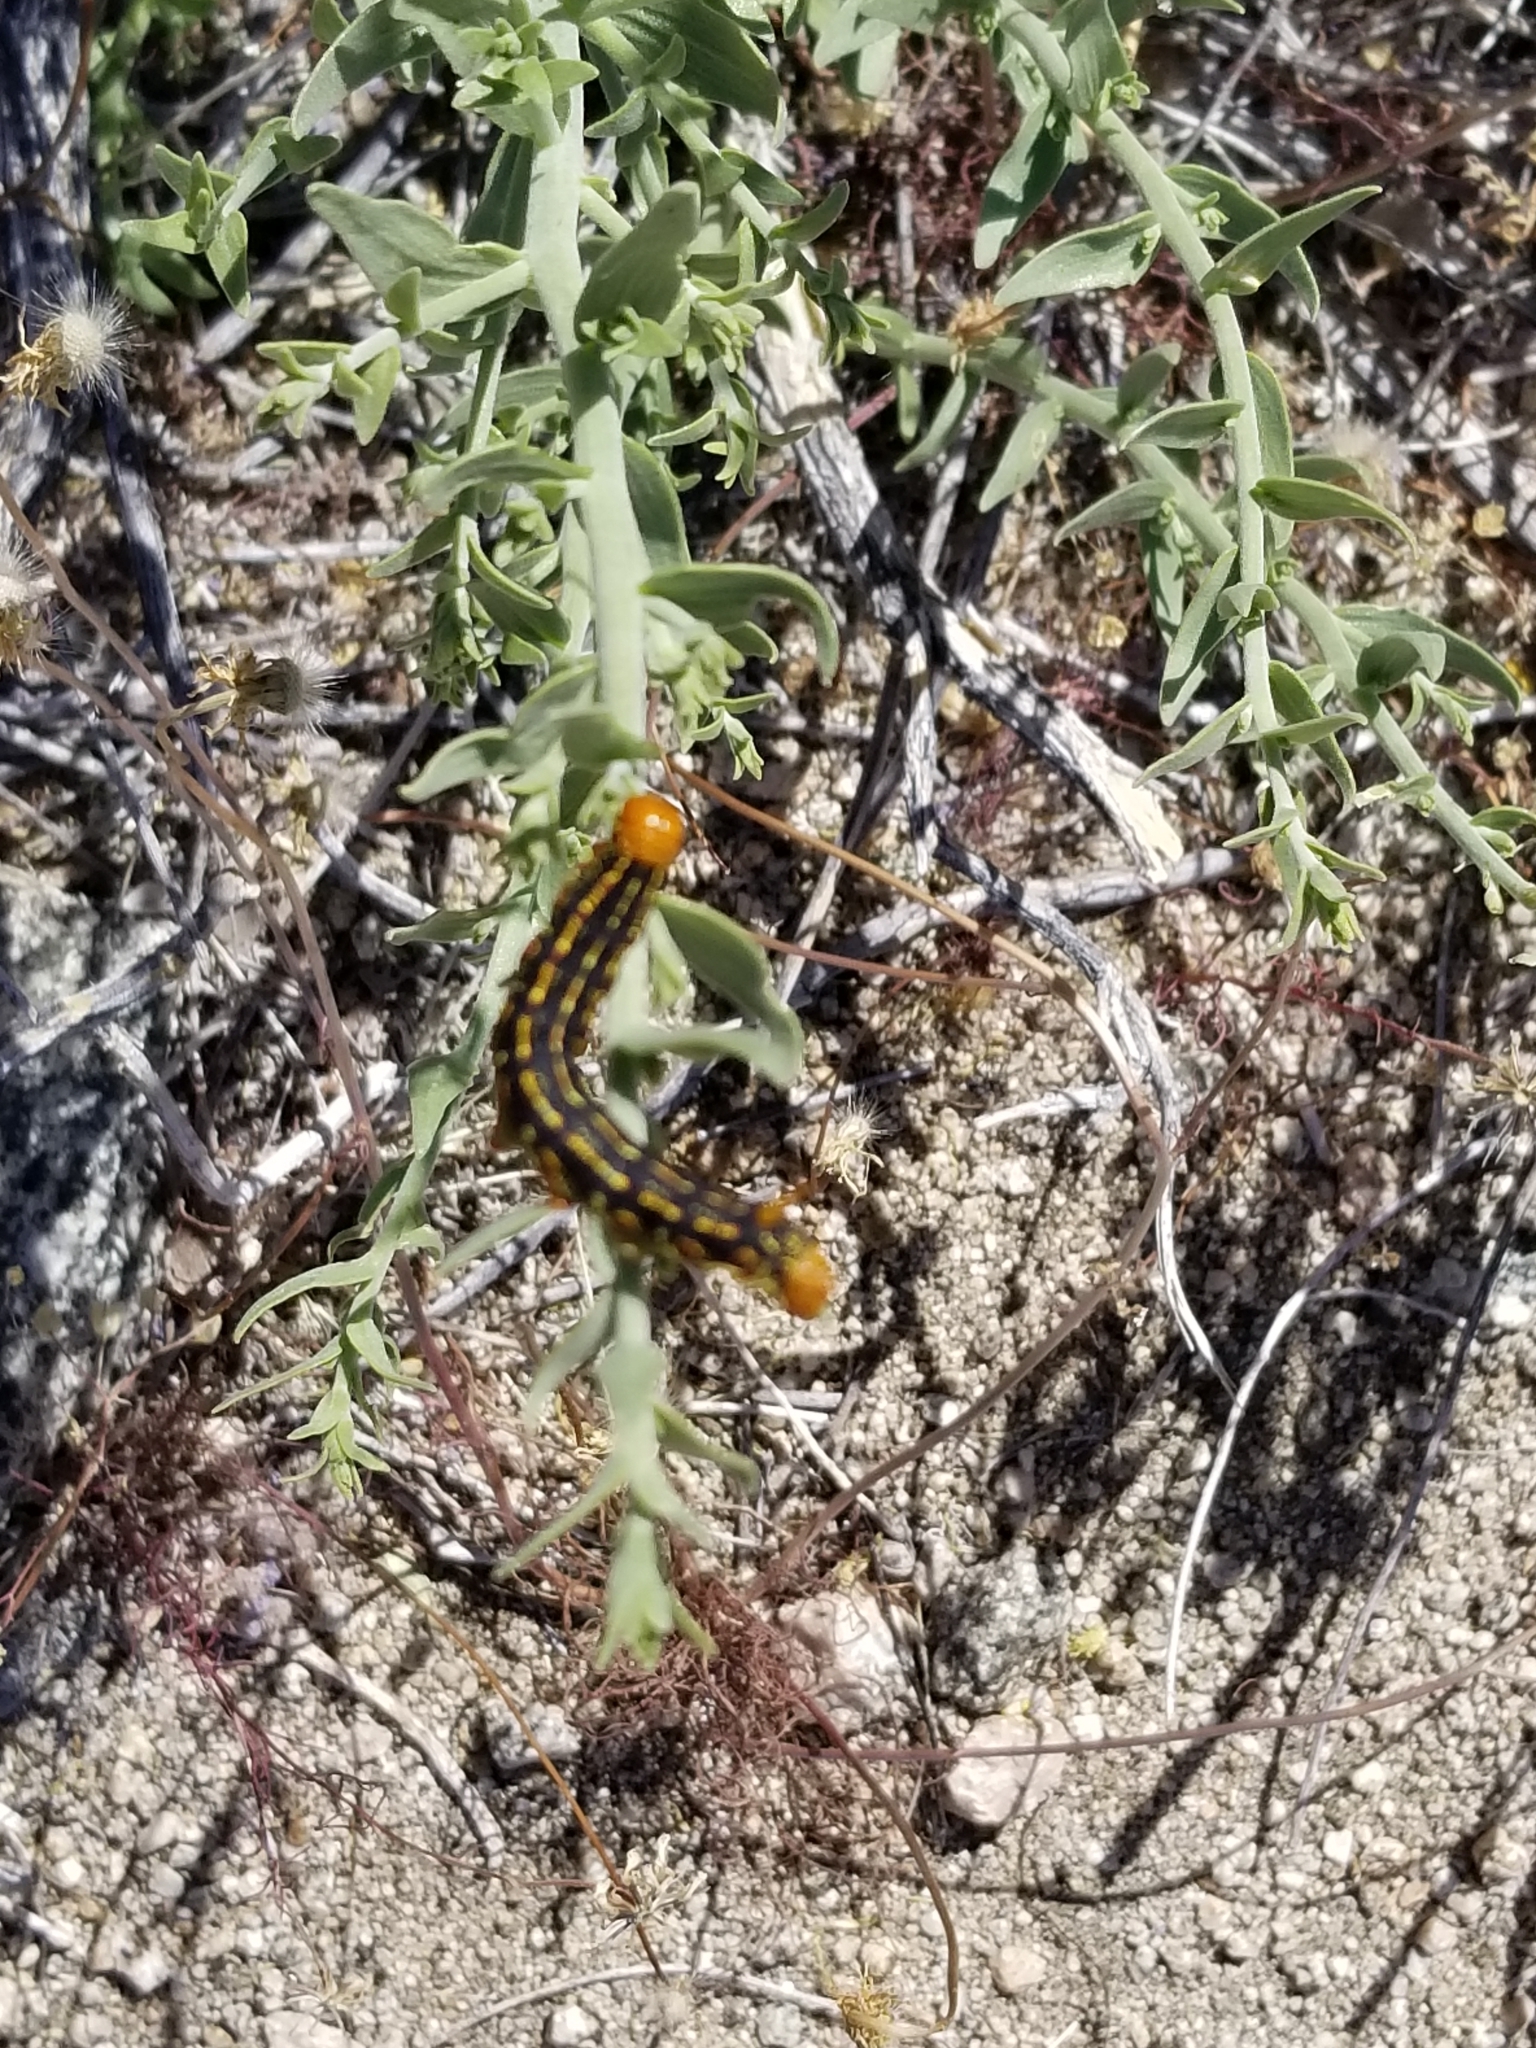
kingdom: Animalia
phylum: Arthropoda
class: Insecta
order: Lepidoptera
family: Sphingidae
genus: Hyles
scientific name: Hyles lineata
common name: White-lined sphinx
